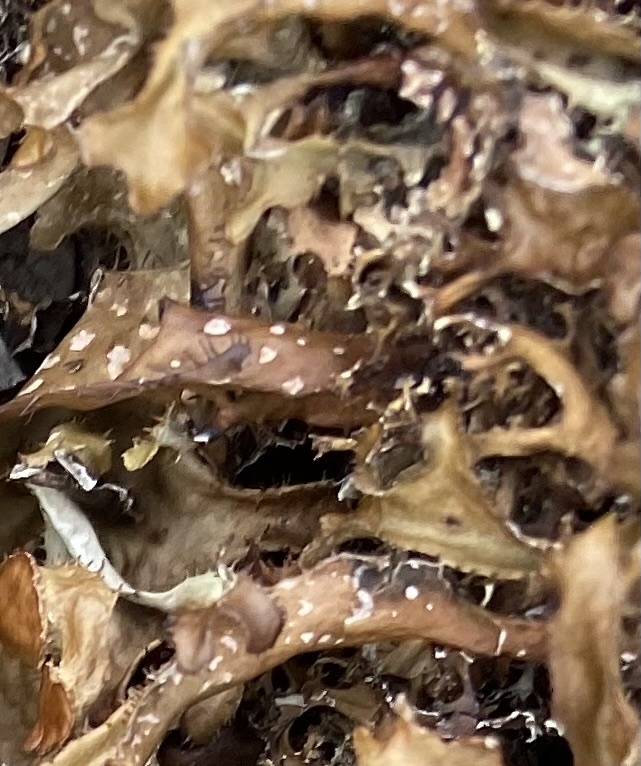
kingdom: Fungi
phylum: Ascomycota
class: Lecanoromycetes
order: Lecanorales
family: Parmeliaceae
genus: Cetraria
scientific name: Cetraria islandica
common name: Iceland lichen
